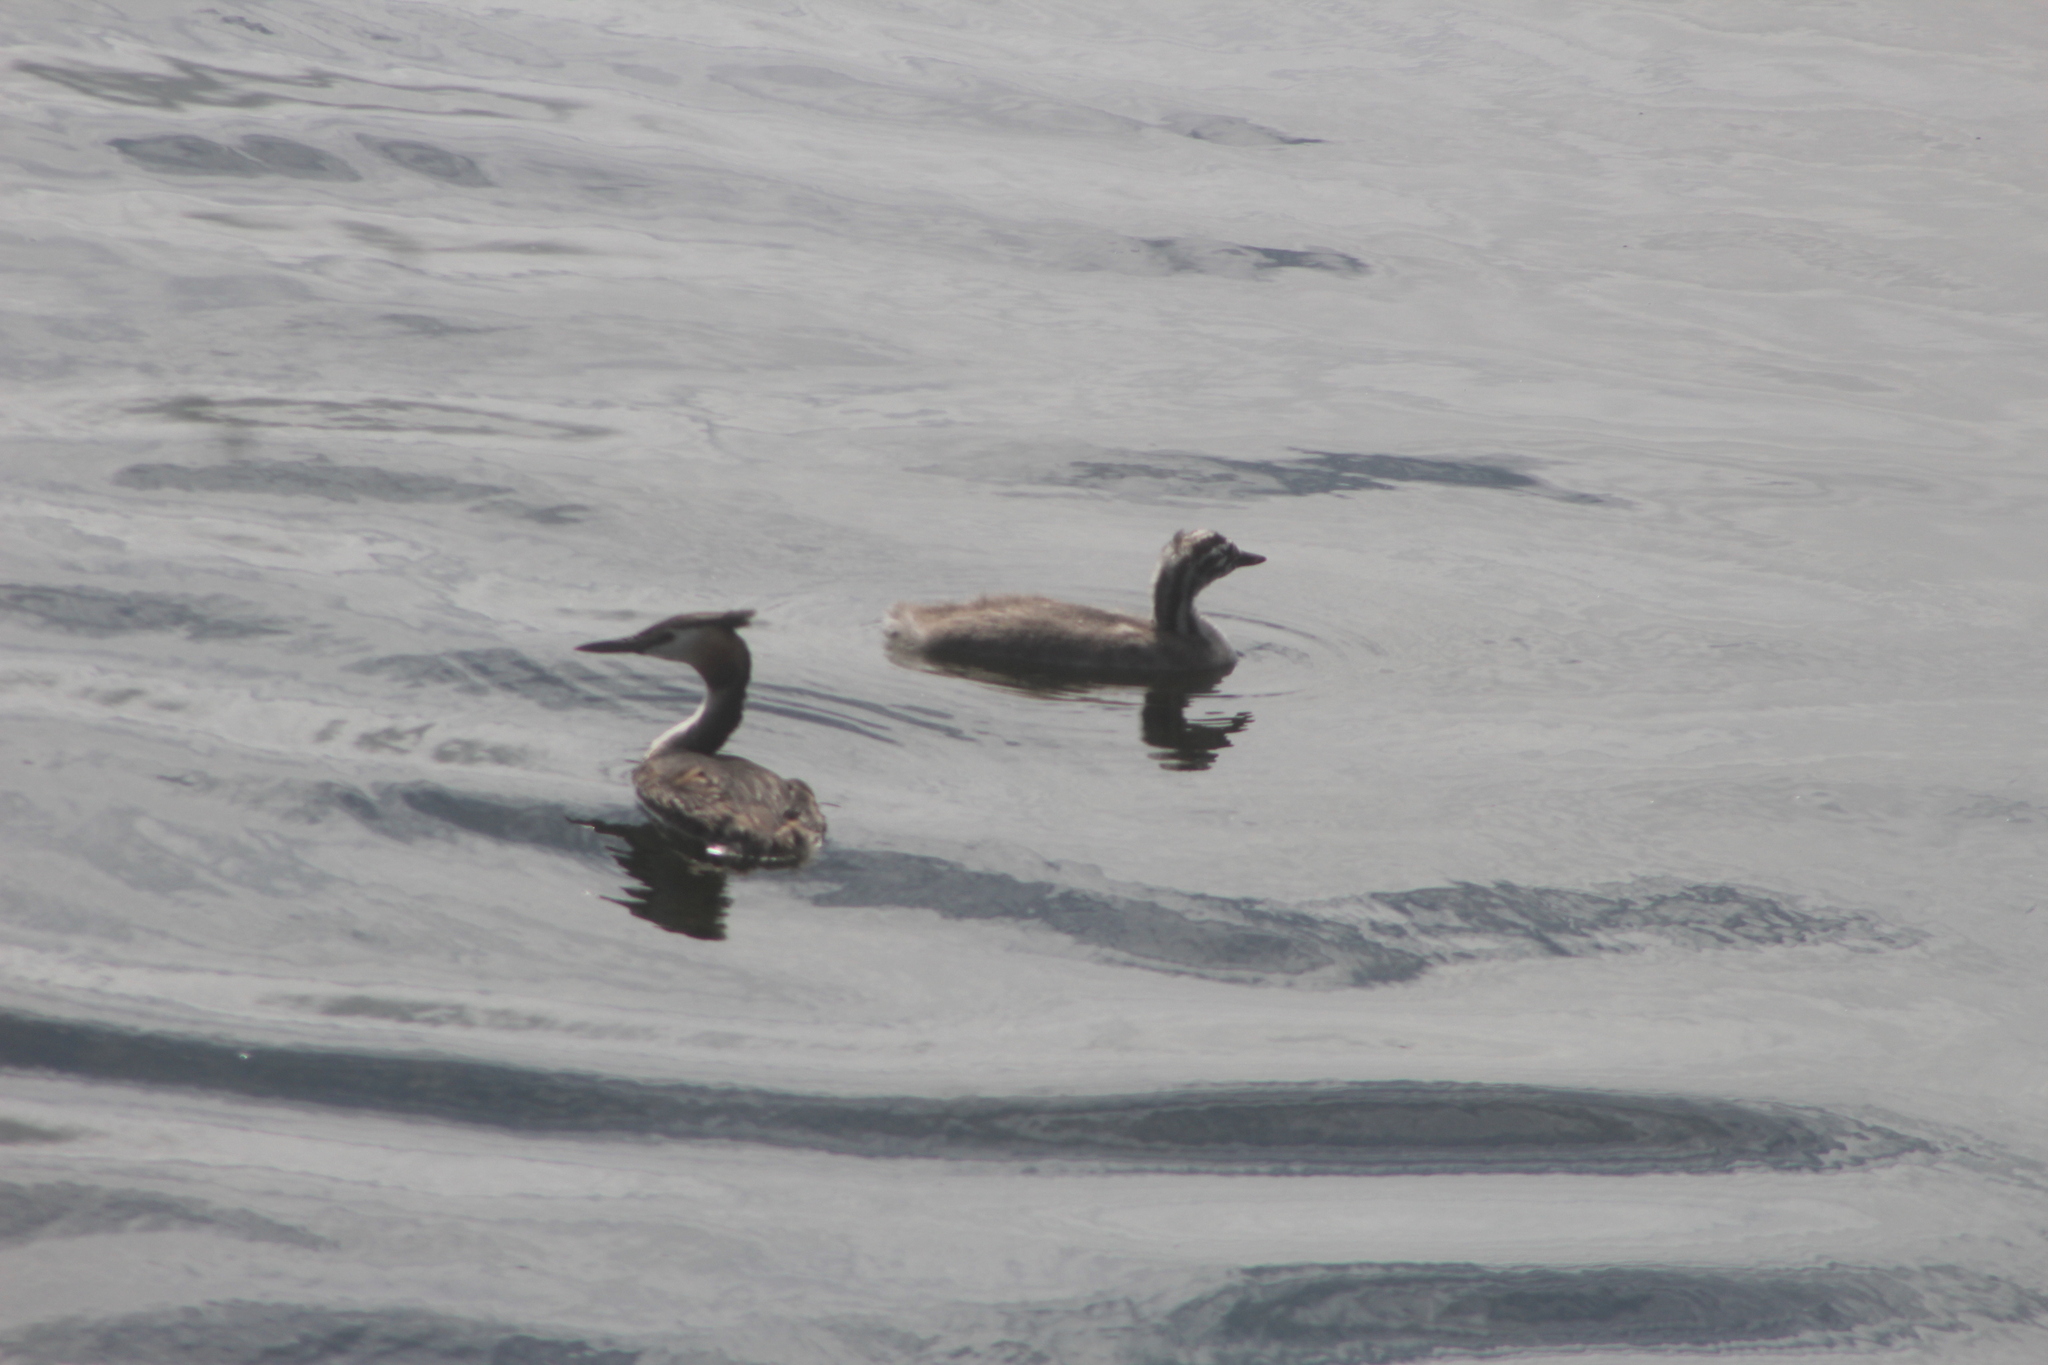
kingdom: Animalia
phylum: Chordata
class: Aves
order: Podicipediformes
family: Podicipedidae
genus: Podiceps
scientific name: Podiceps cristatus
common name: Great crested grebe
